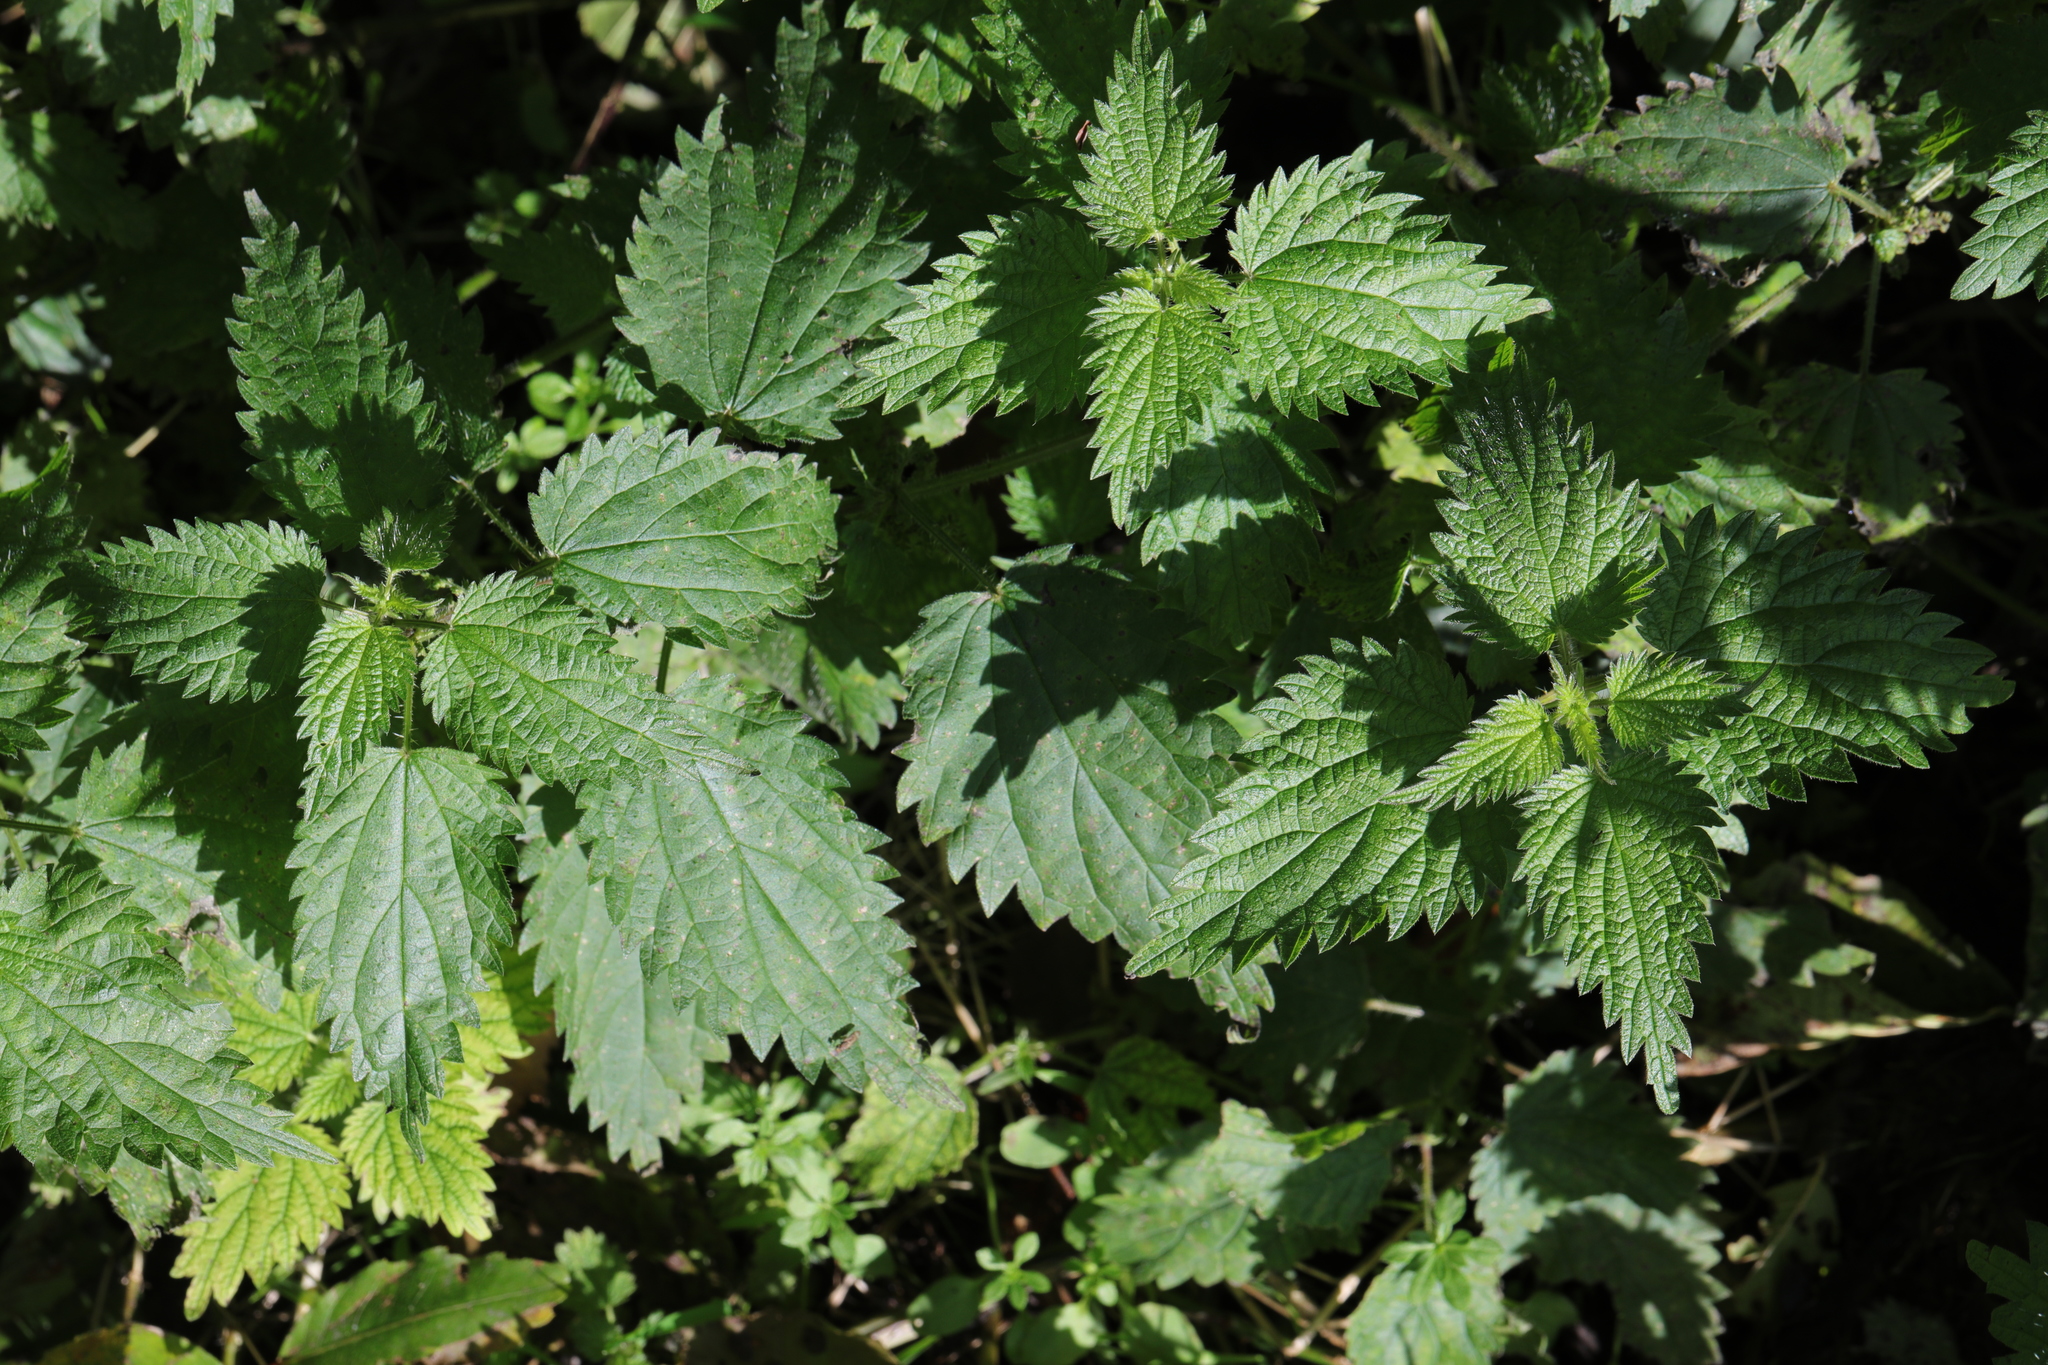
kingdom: Plantae
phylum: Tracheophyta
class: Magnoliopsida
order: Rosales
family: Urticaceae
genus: Urtica
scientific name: Urtica dioica
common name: Common nettle
